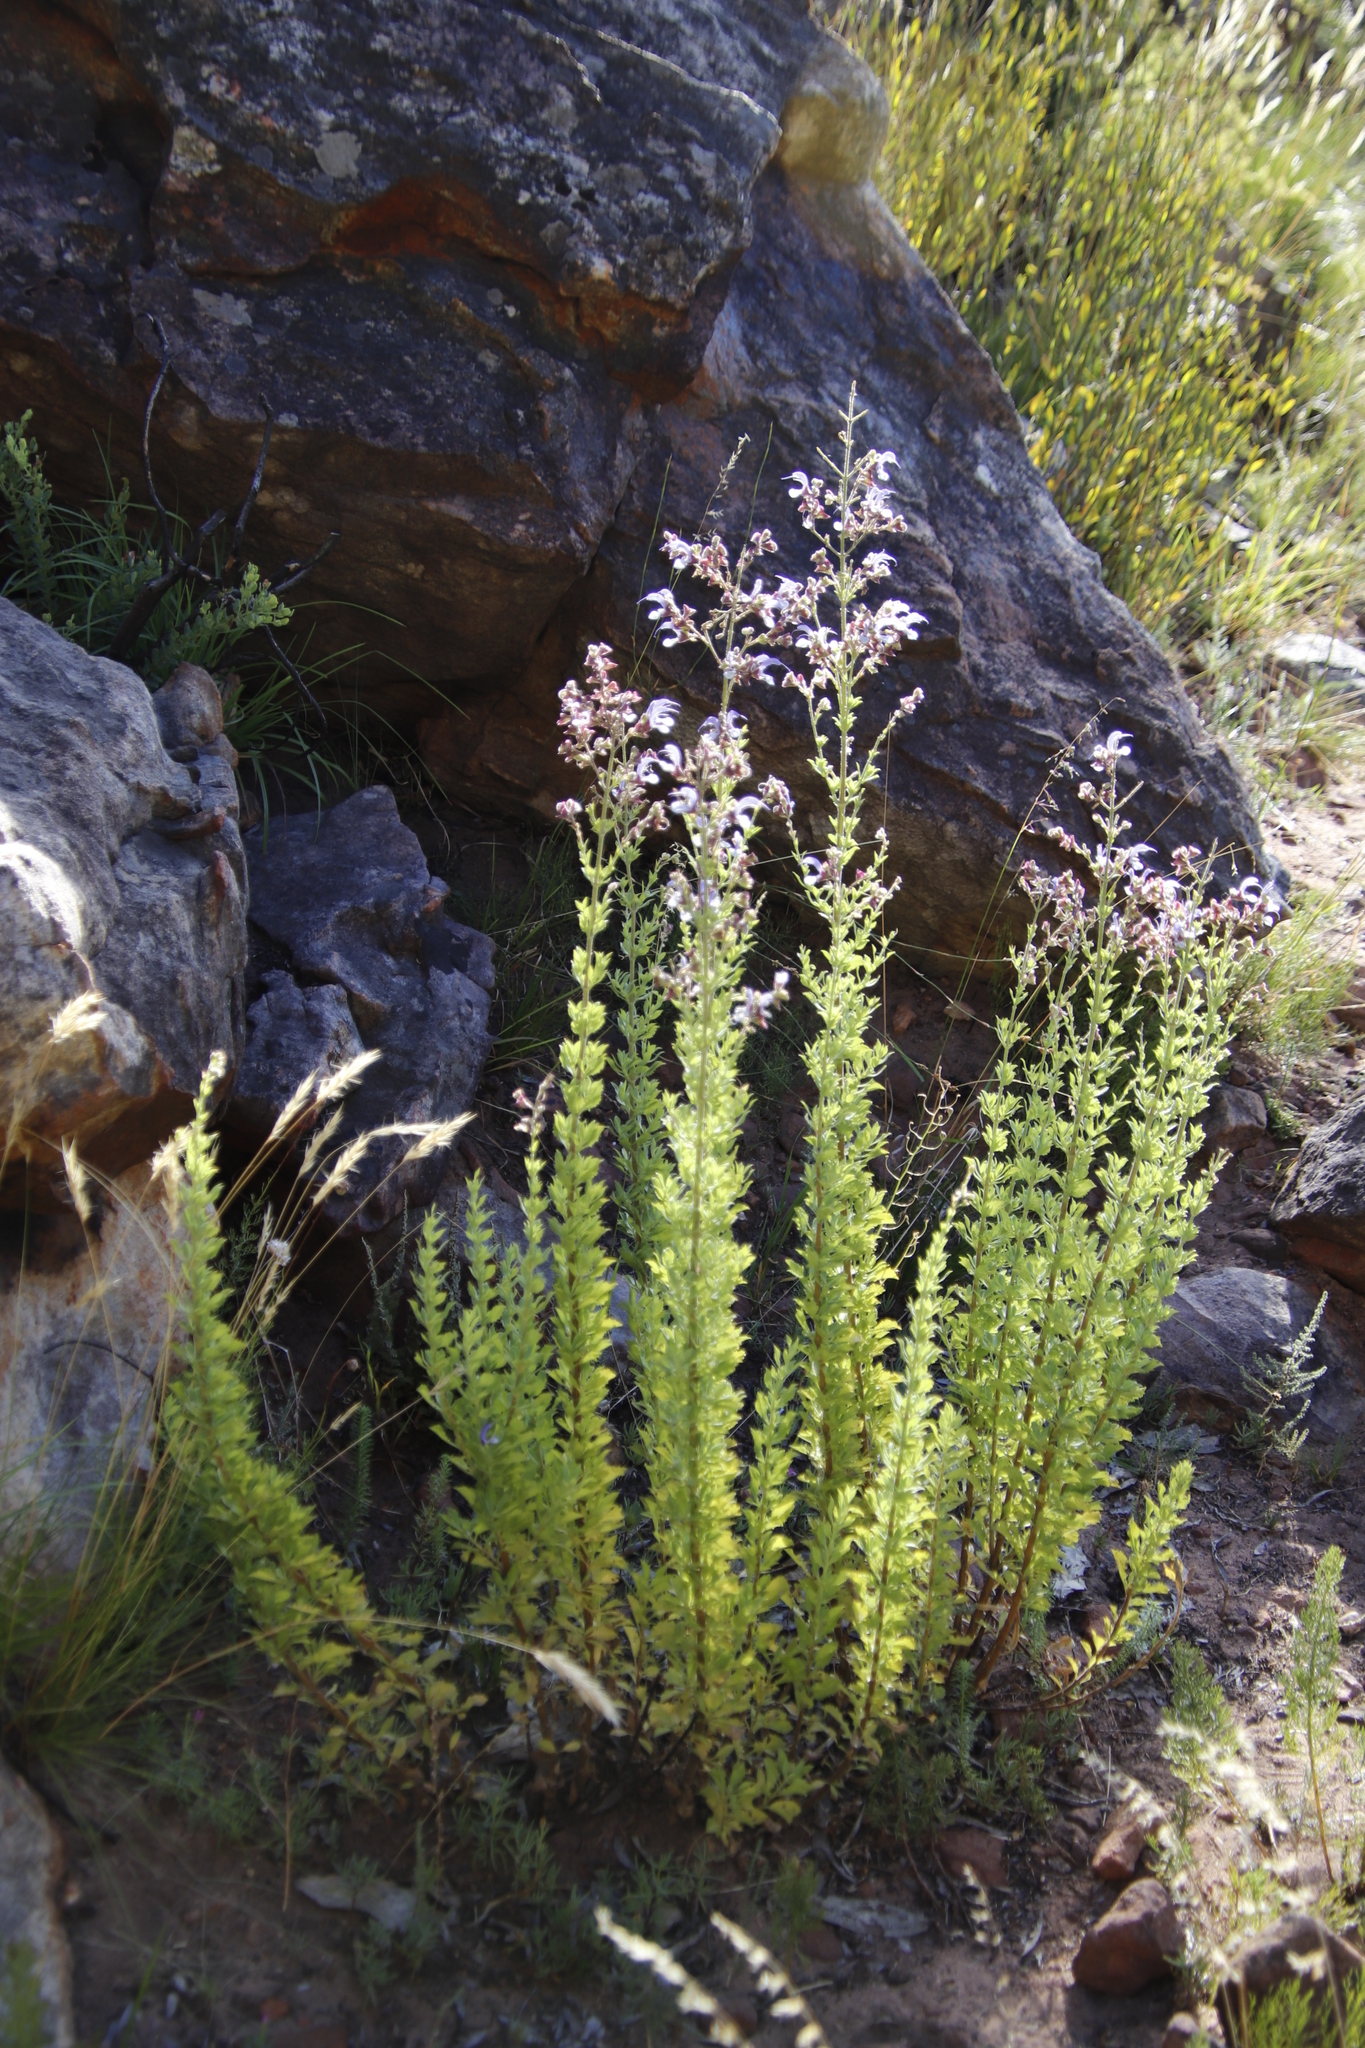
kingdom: Plantae
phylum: Tracheophyta
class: Magnoliopsida
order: Lamiales
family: Lamiaceae
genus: Salvia
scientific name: Salvia chamelaeagnea
